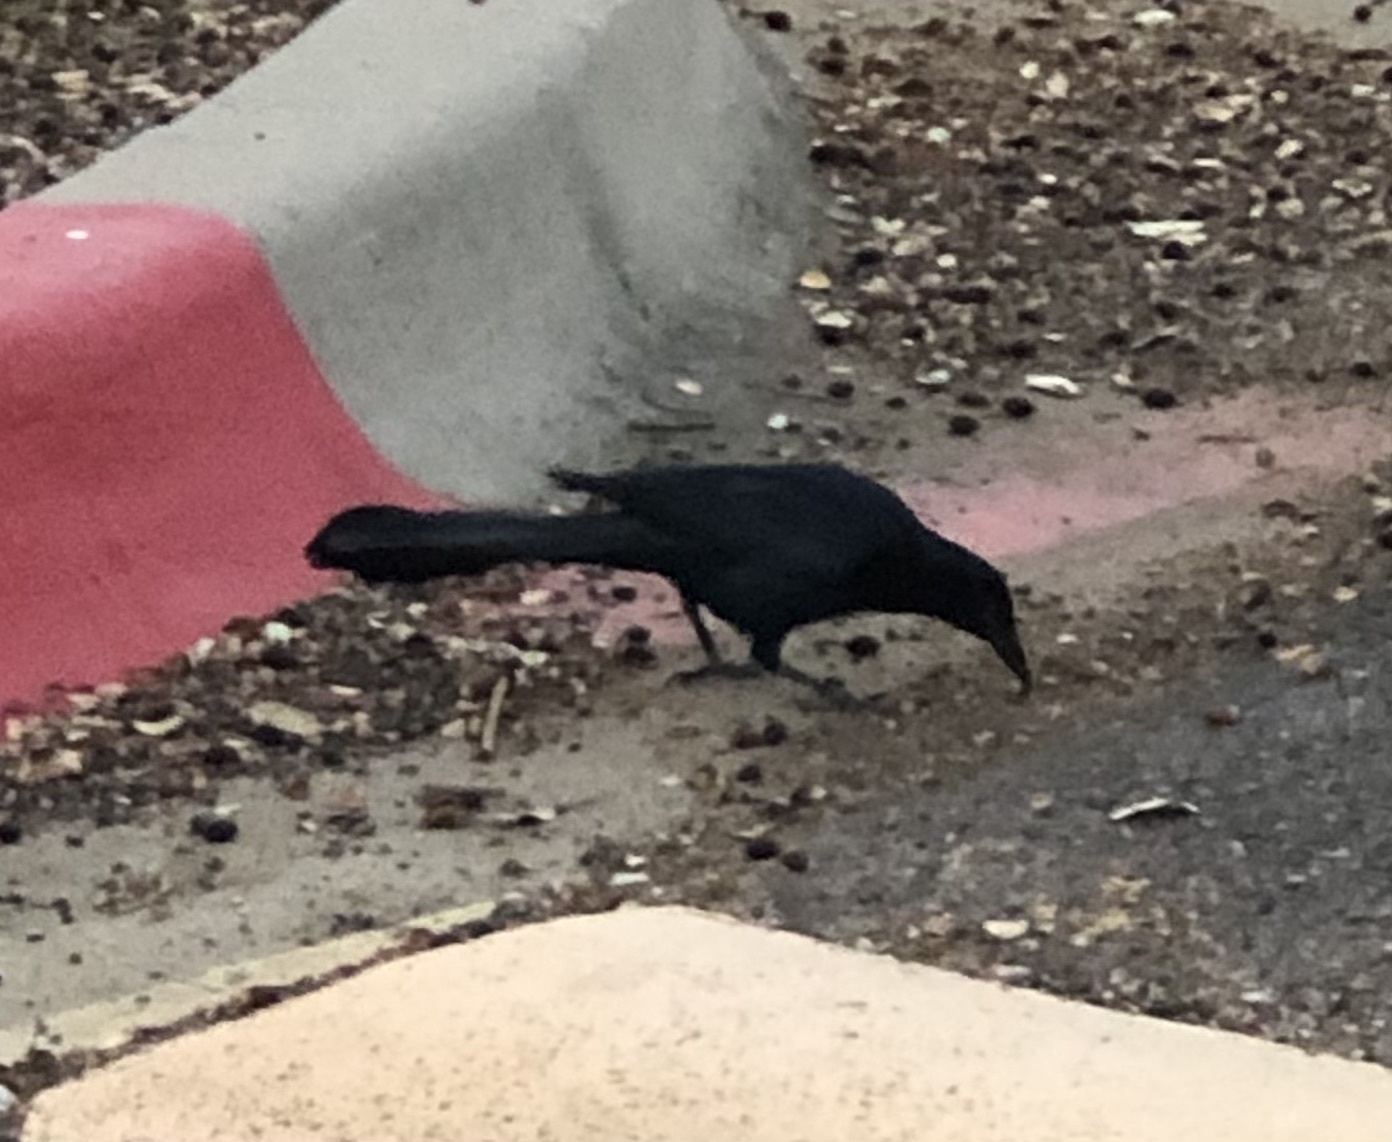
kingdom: Animalia
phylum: Chordata
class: Aves
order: Passeriformes
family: Icteridae
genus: Quiscalus
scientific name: Quiscalus mexicanus
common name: Great-tailed grackle
